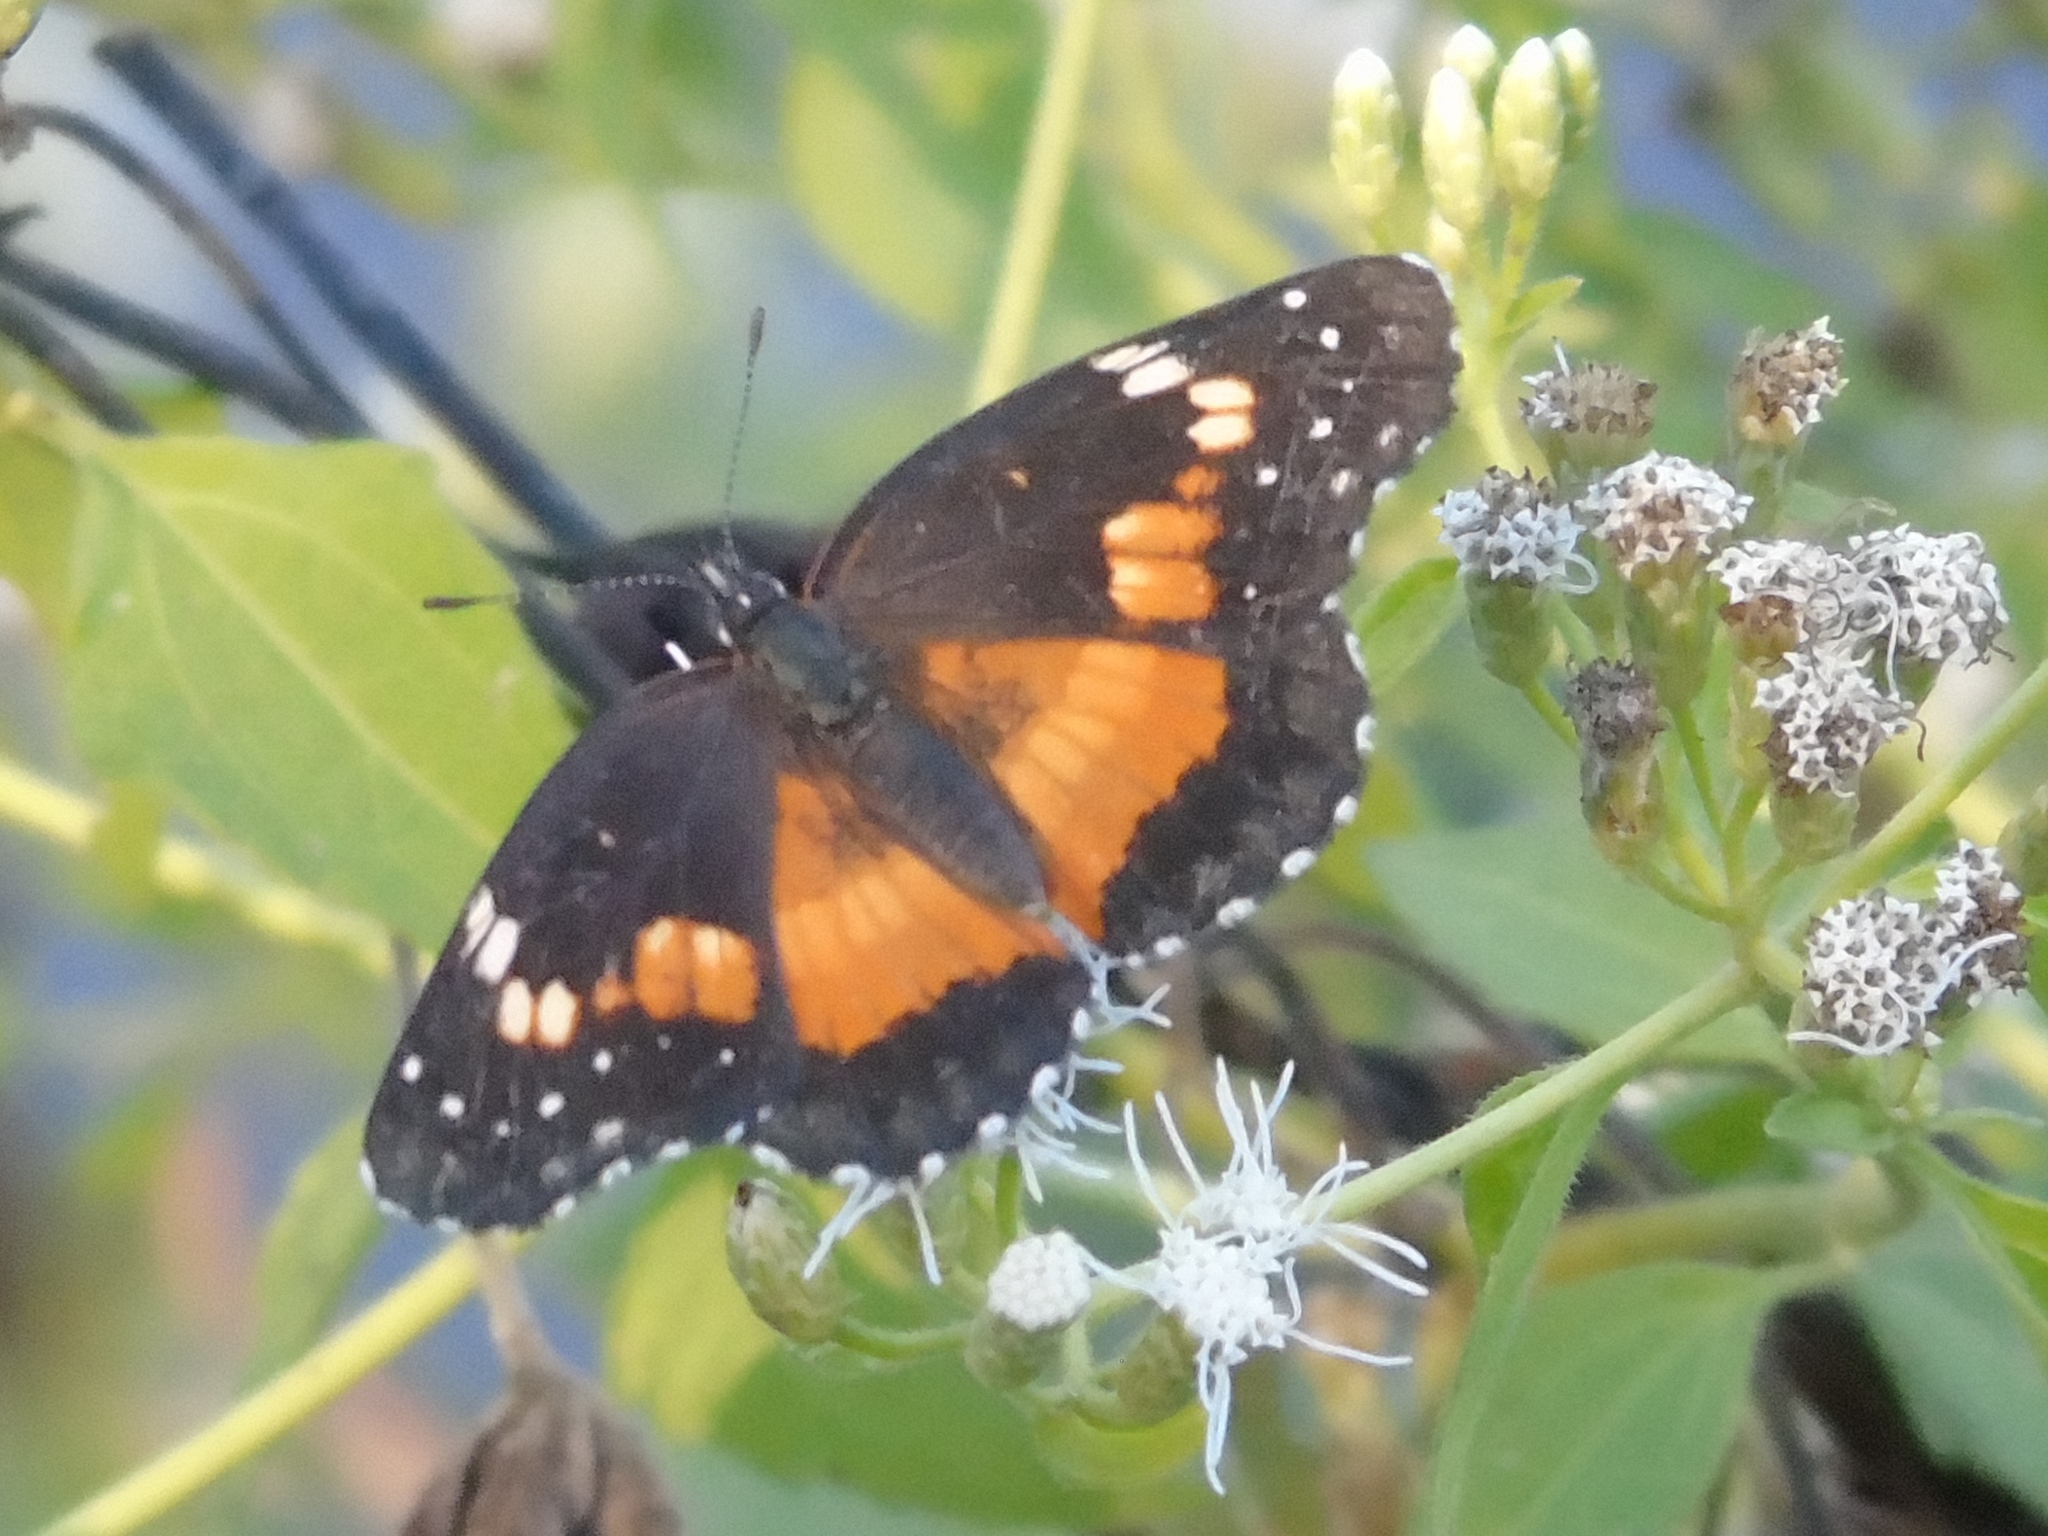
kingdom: Animalia
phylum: Arthropoda
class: Insecta
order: Lepidoptera
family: Nymphalidae
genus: Chlosyne
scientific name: Chlosyne lacinia
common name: Bordered patch
